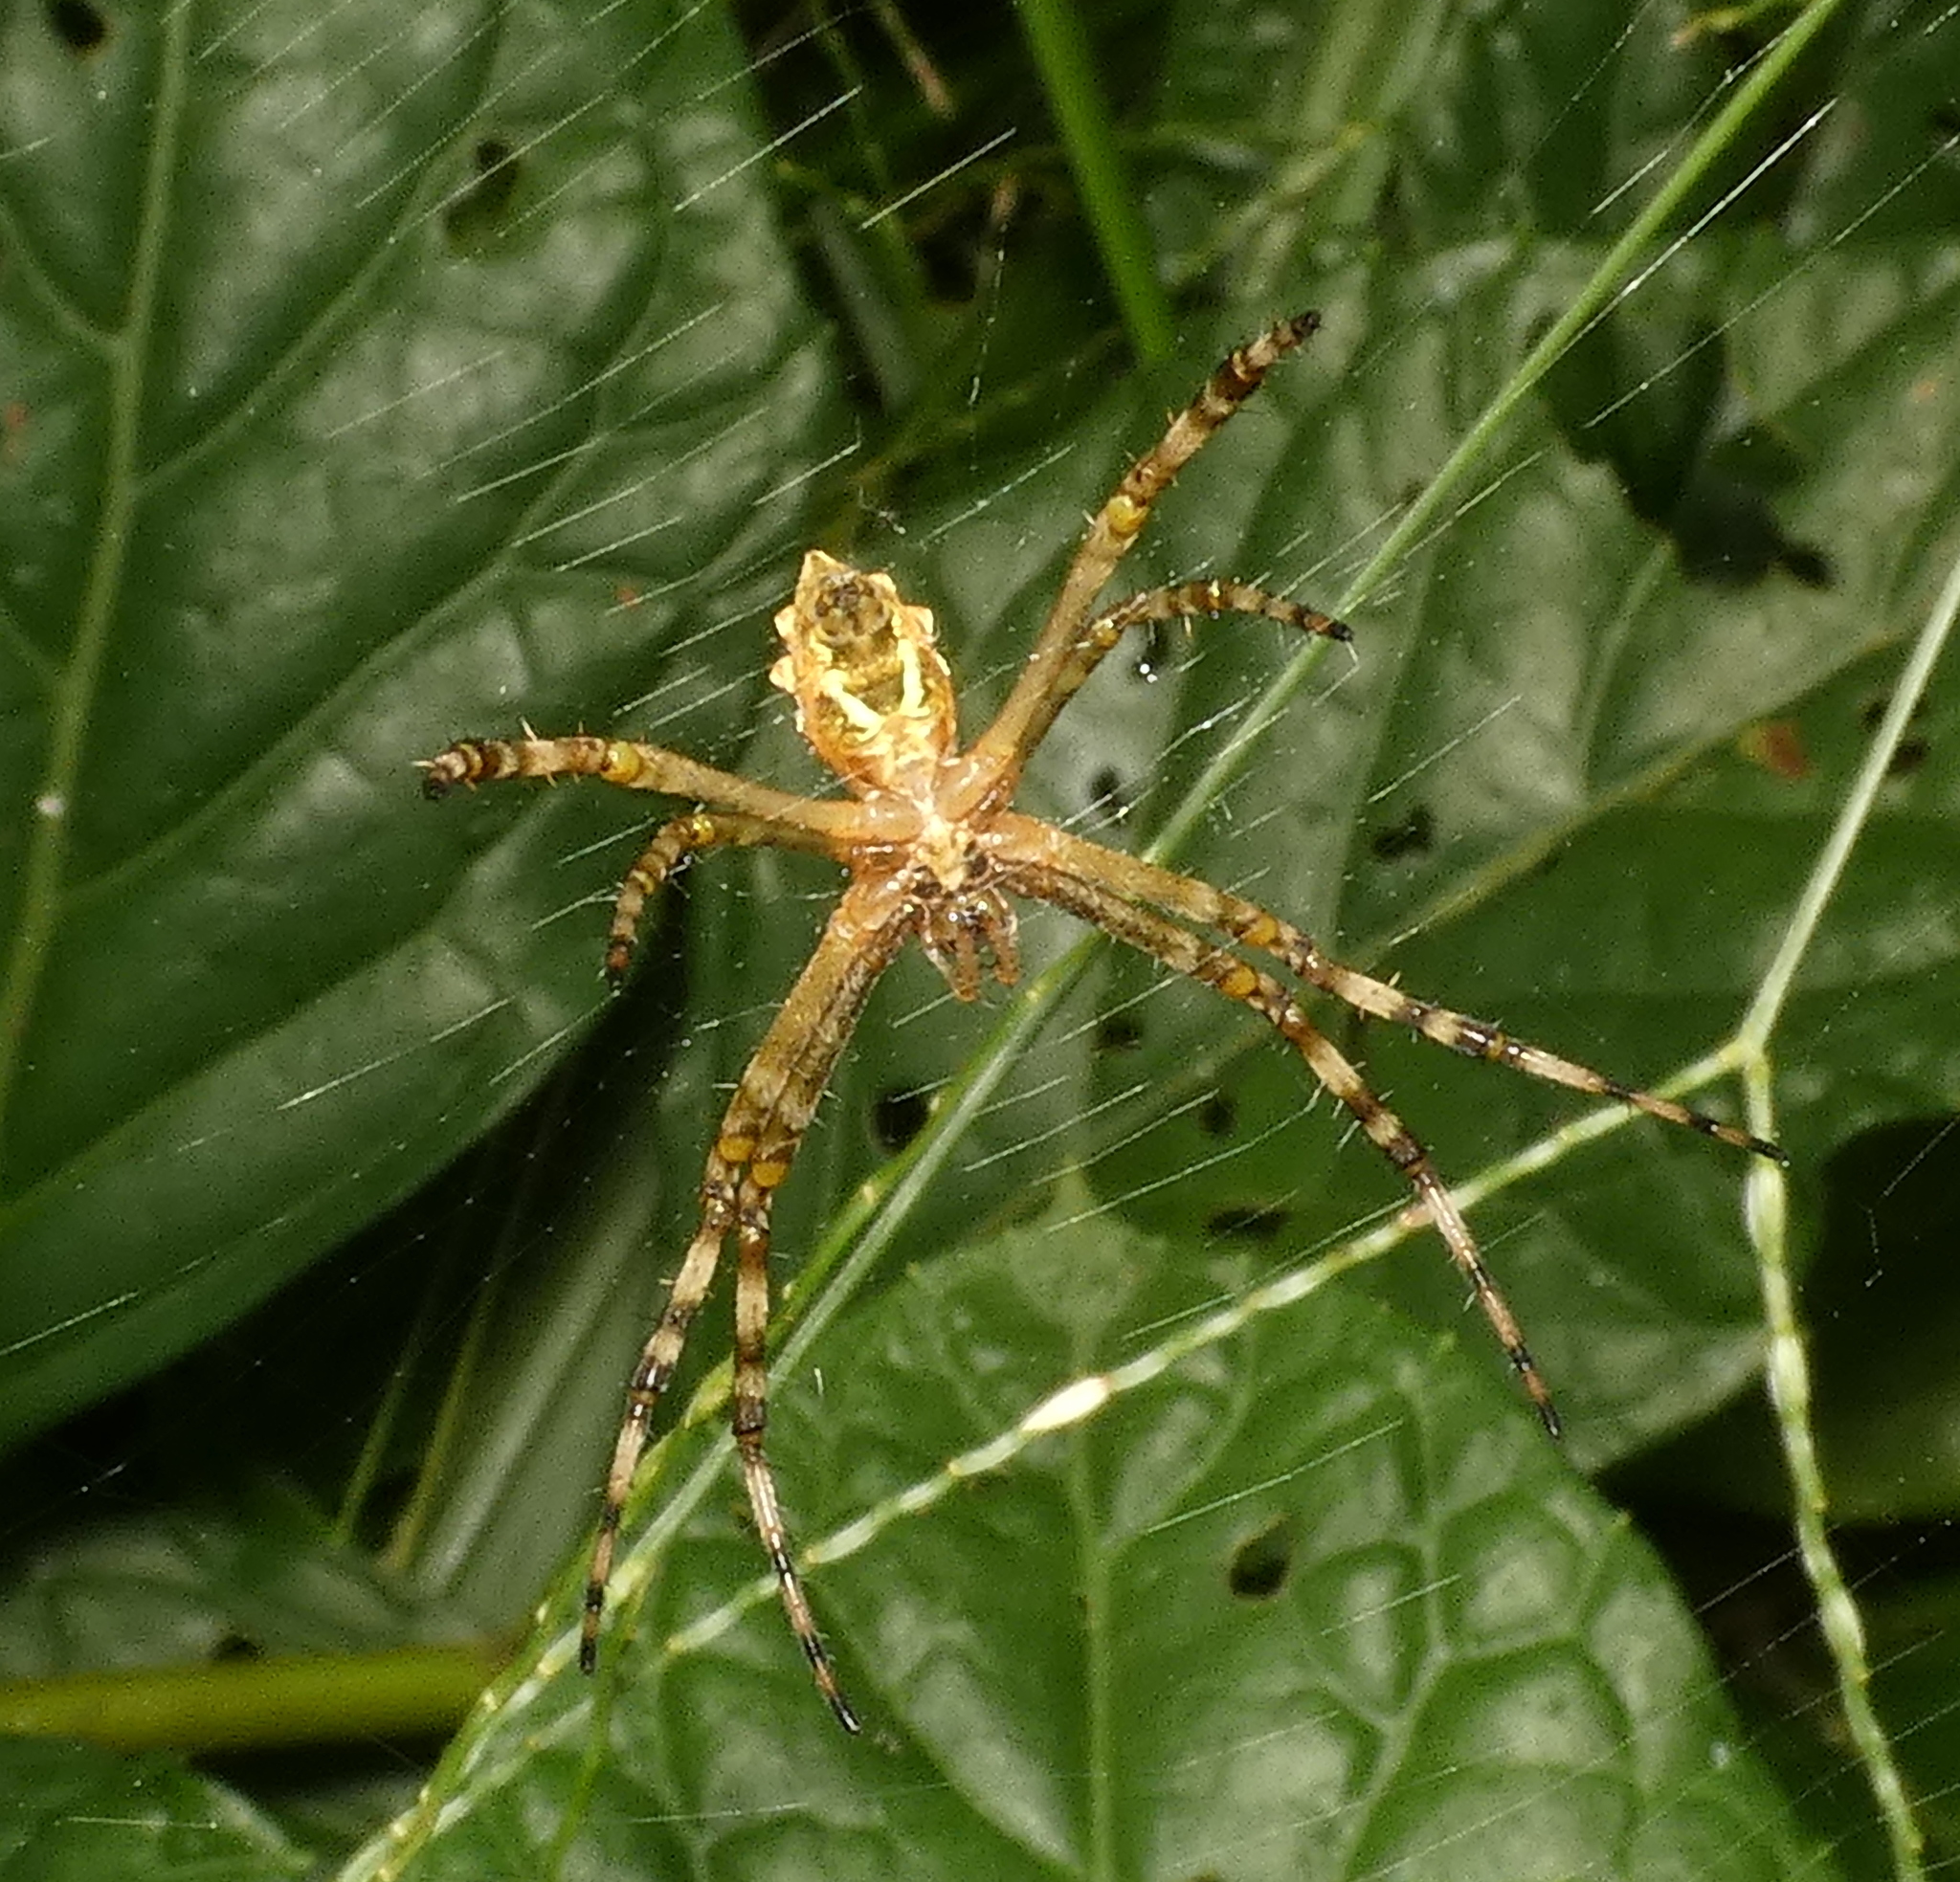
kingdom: Animalia
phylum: Arthropoda
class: Arachnida
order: Araneae
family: Araneidae
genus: Argiope
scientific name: Argiope argentata
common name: Orb weavers
